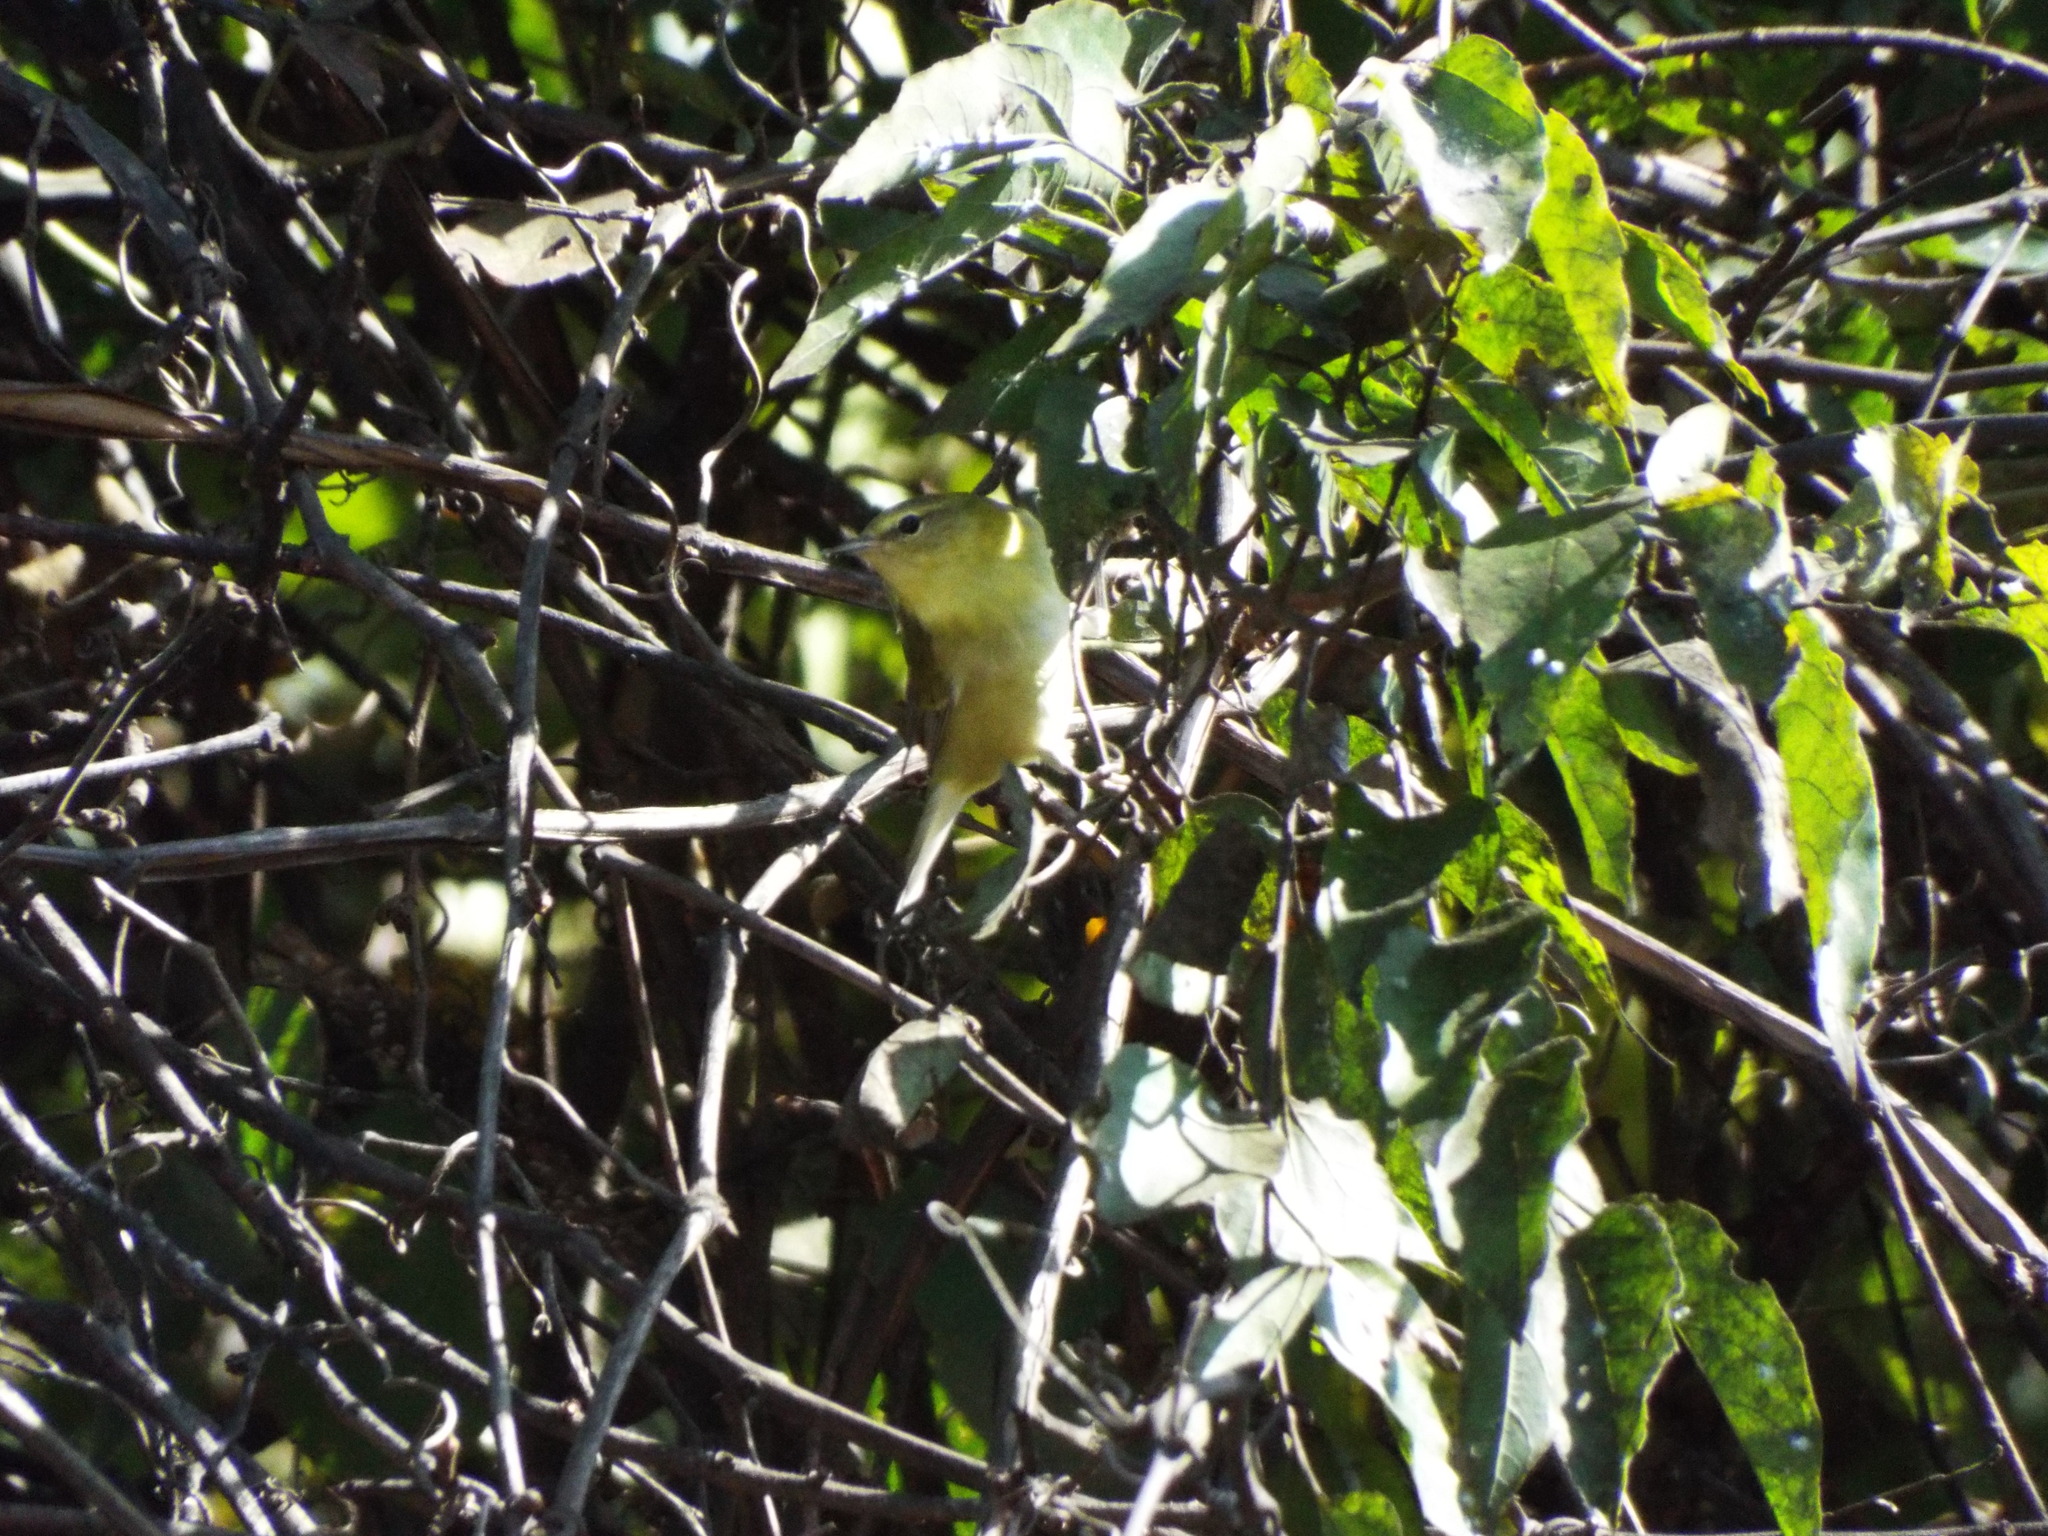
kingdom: Animalia
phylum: Chordata
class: Aves
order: Passeriformes
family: Parulidae
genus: Leiothlypis
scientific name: Leiothlypis peregrina
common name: Tennessee warbler
